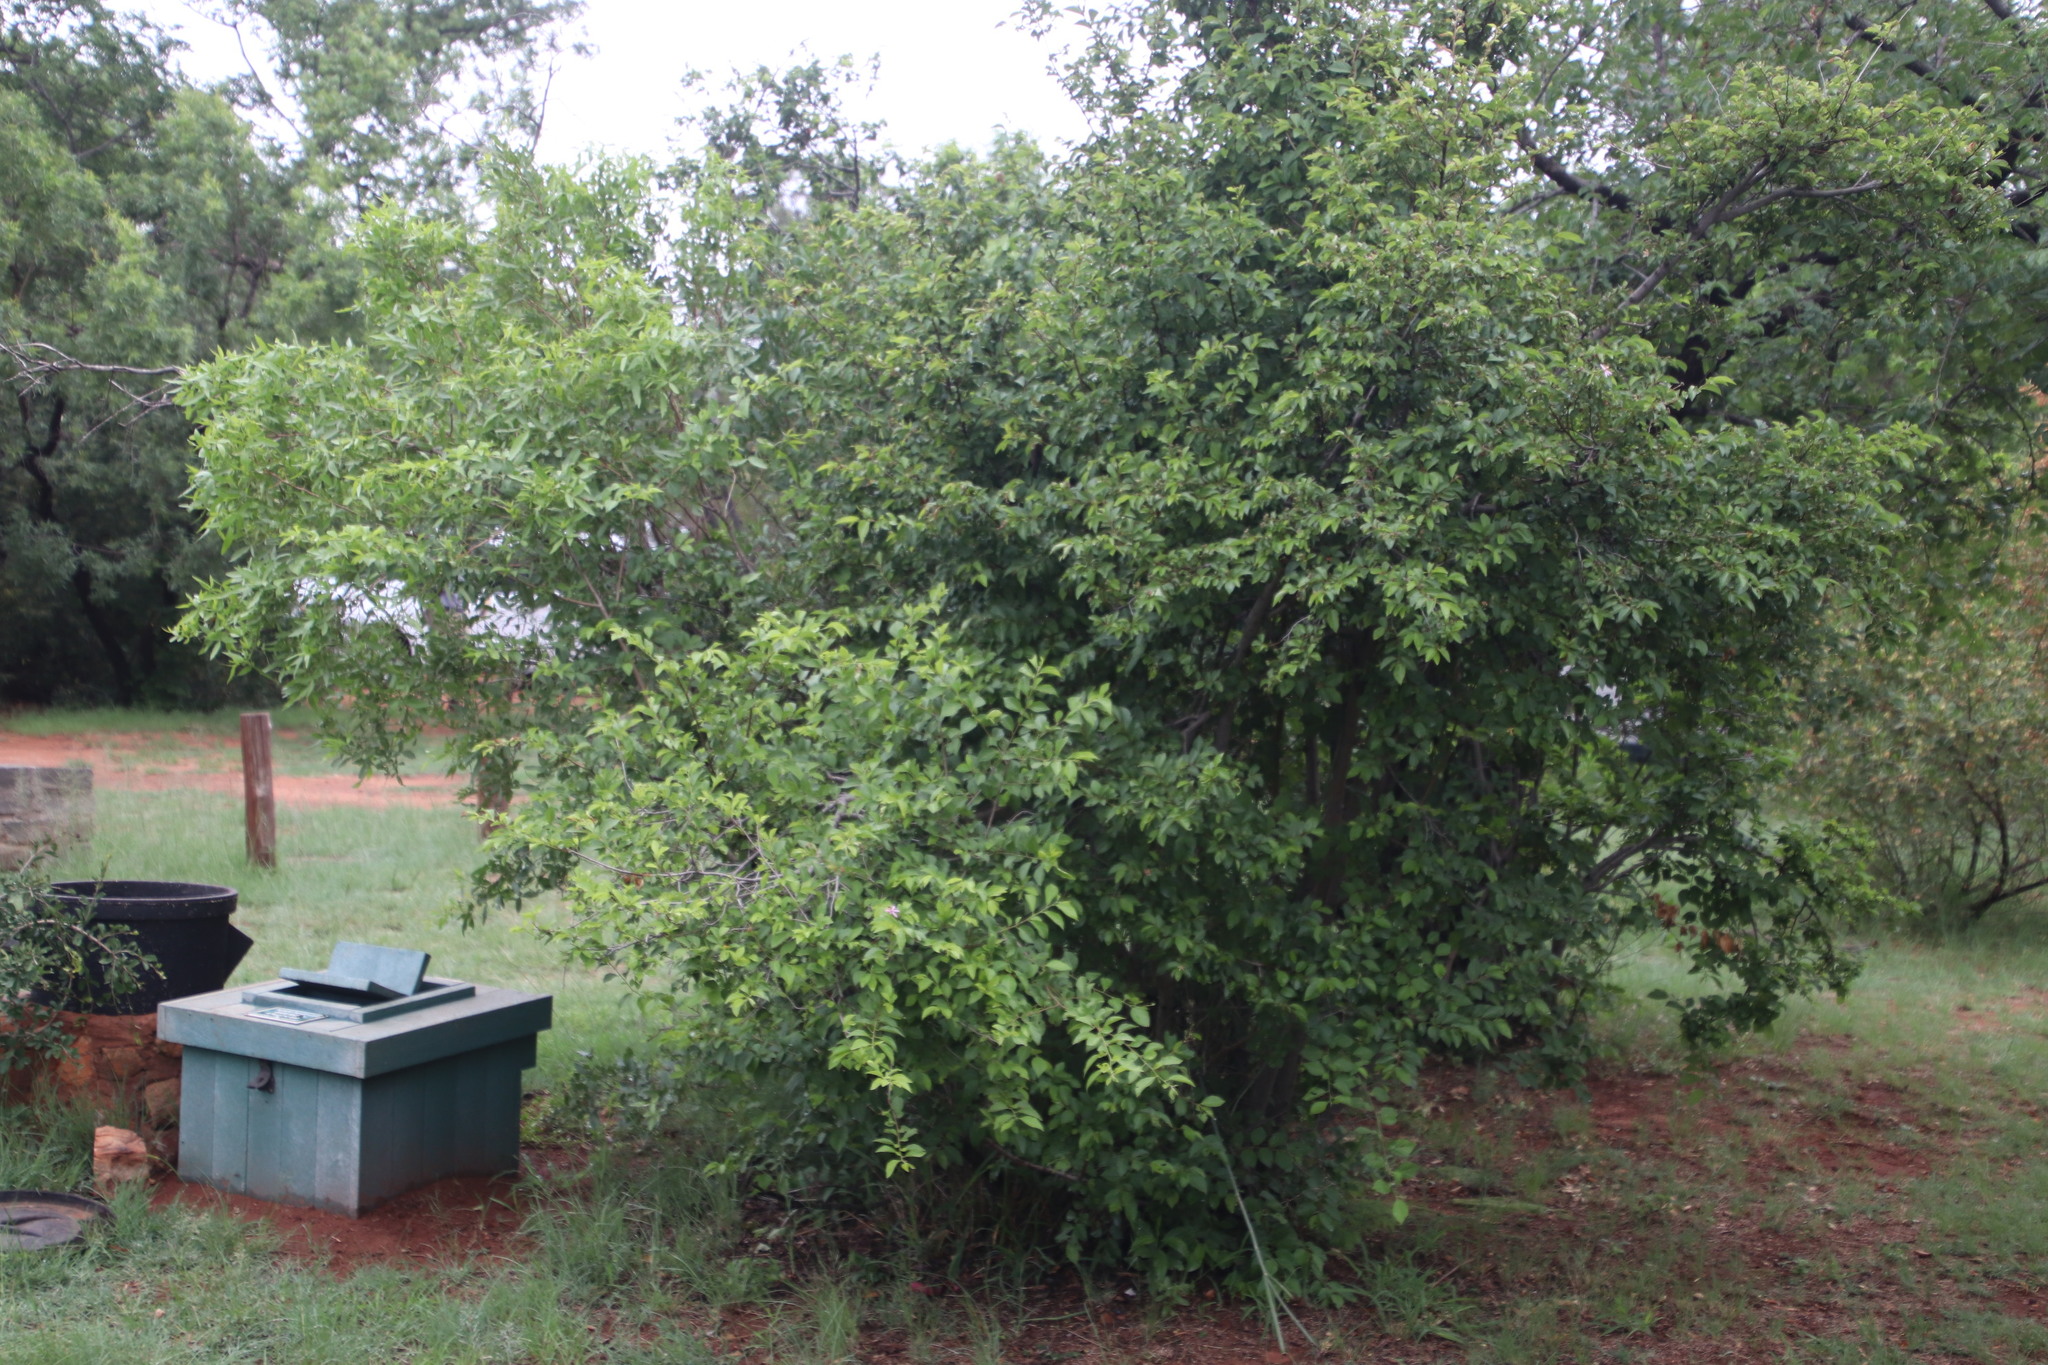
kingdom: Plantae
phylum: Tracheophyta
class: Magnoliopsida
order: Malvales
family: Malvaceae
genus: Grewia
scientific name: Grewia occidentalis
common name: Crossberry
